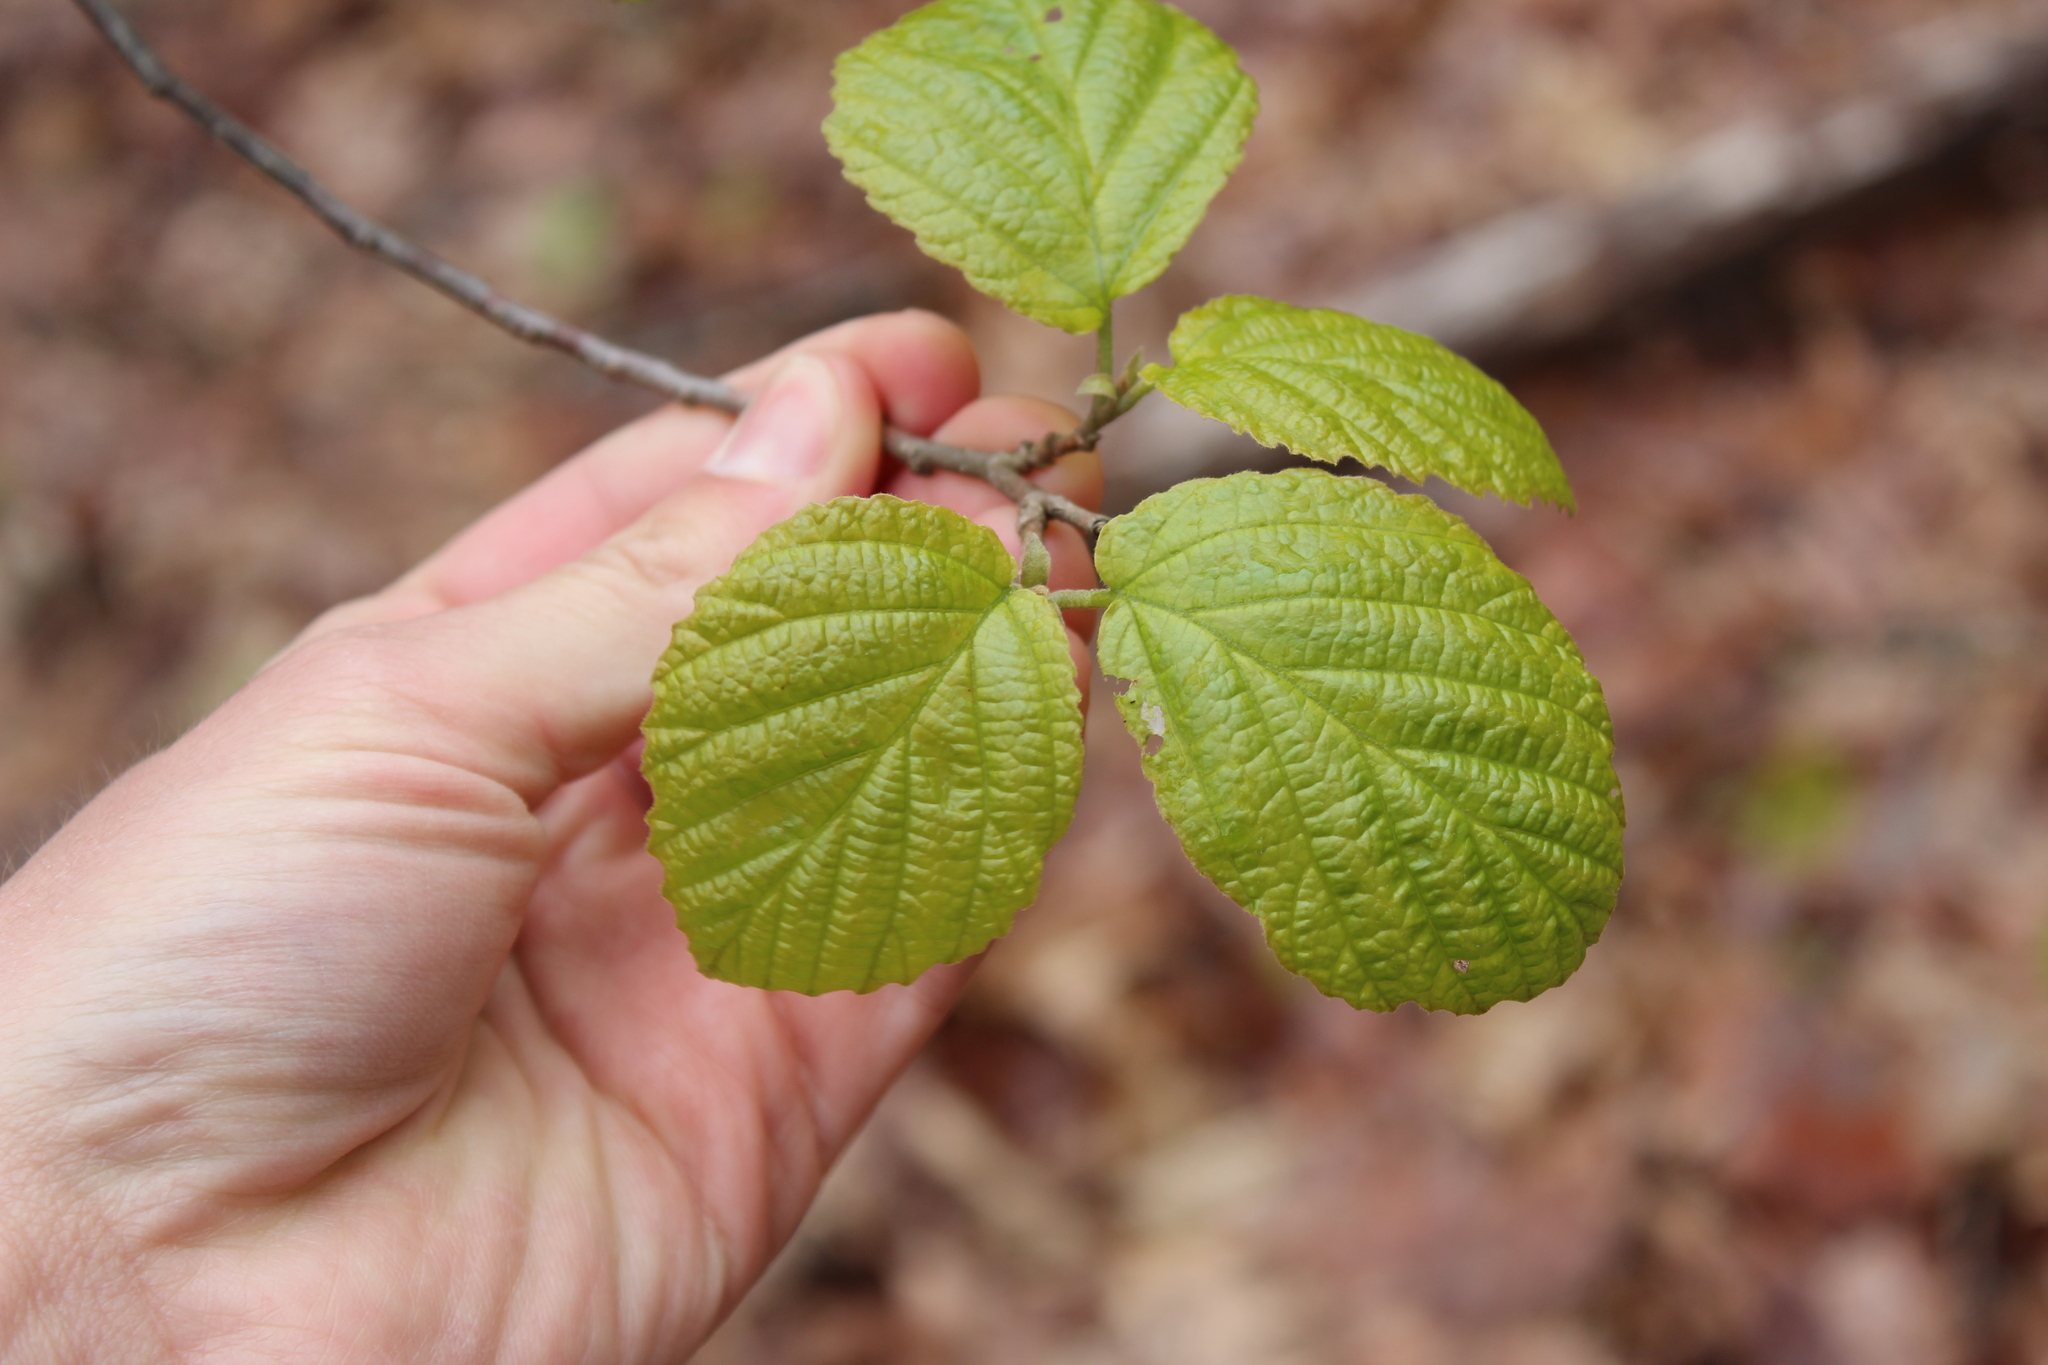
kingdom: Plantae
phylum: Tracheophyta
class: Magnoliopsida
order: Saxifragales
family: Hamamelidaceae
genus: Hamamelis
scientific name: Hamamelis virginiana
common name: Witch-hazel
